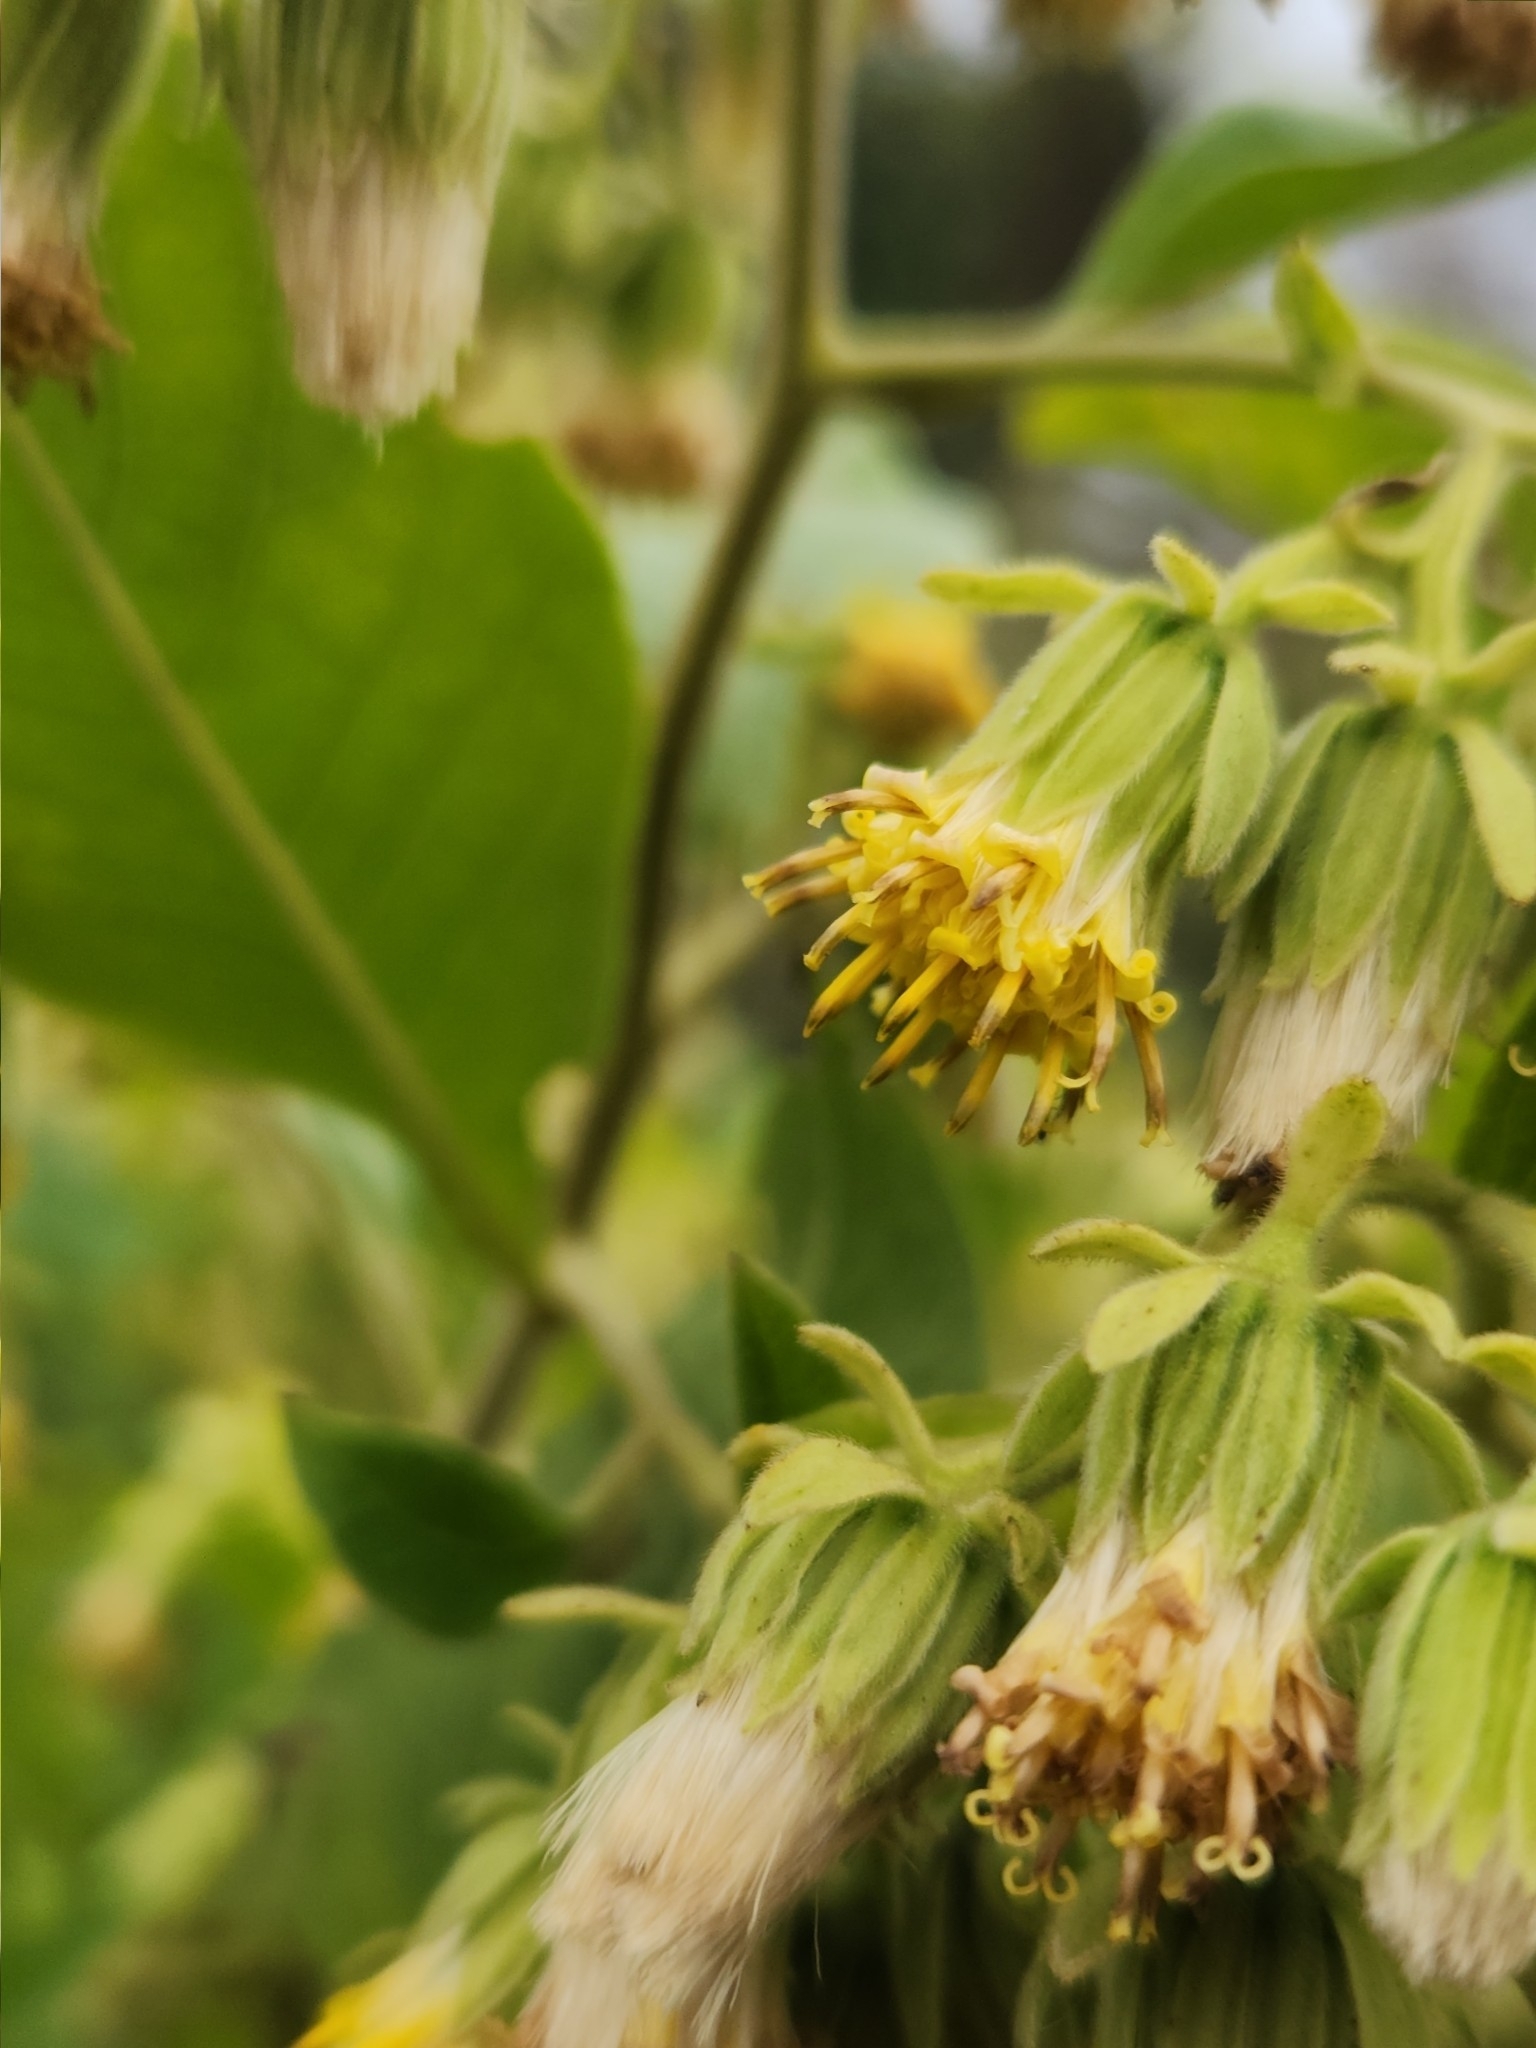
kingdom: Plantae
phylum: Tracheophyta
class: Magnoliopsida
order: Asterales
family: Asteraceae
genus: Trixis
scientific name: Trixis praestans
